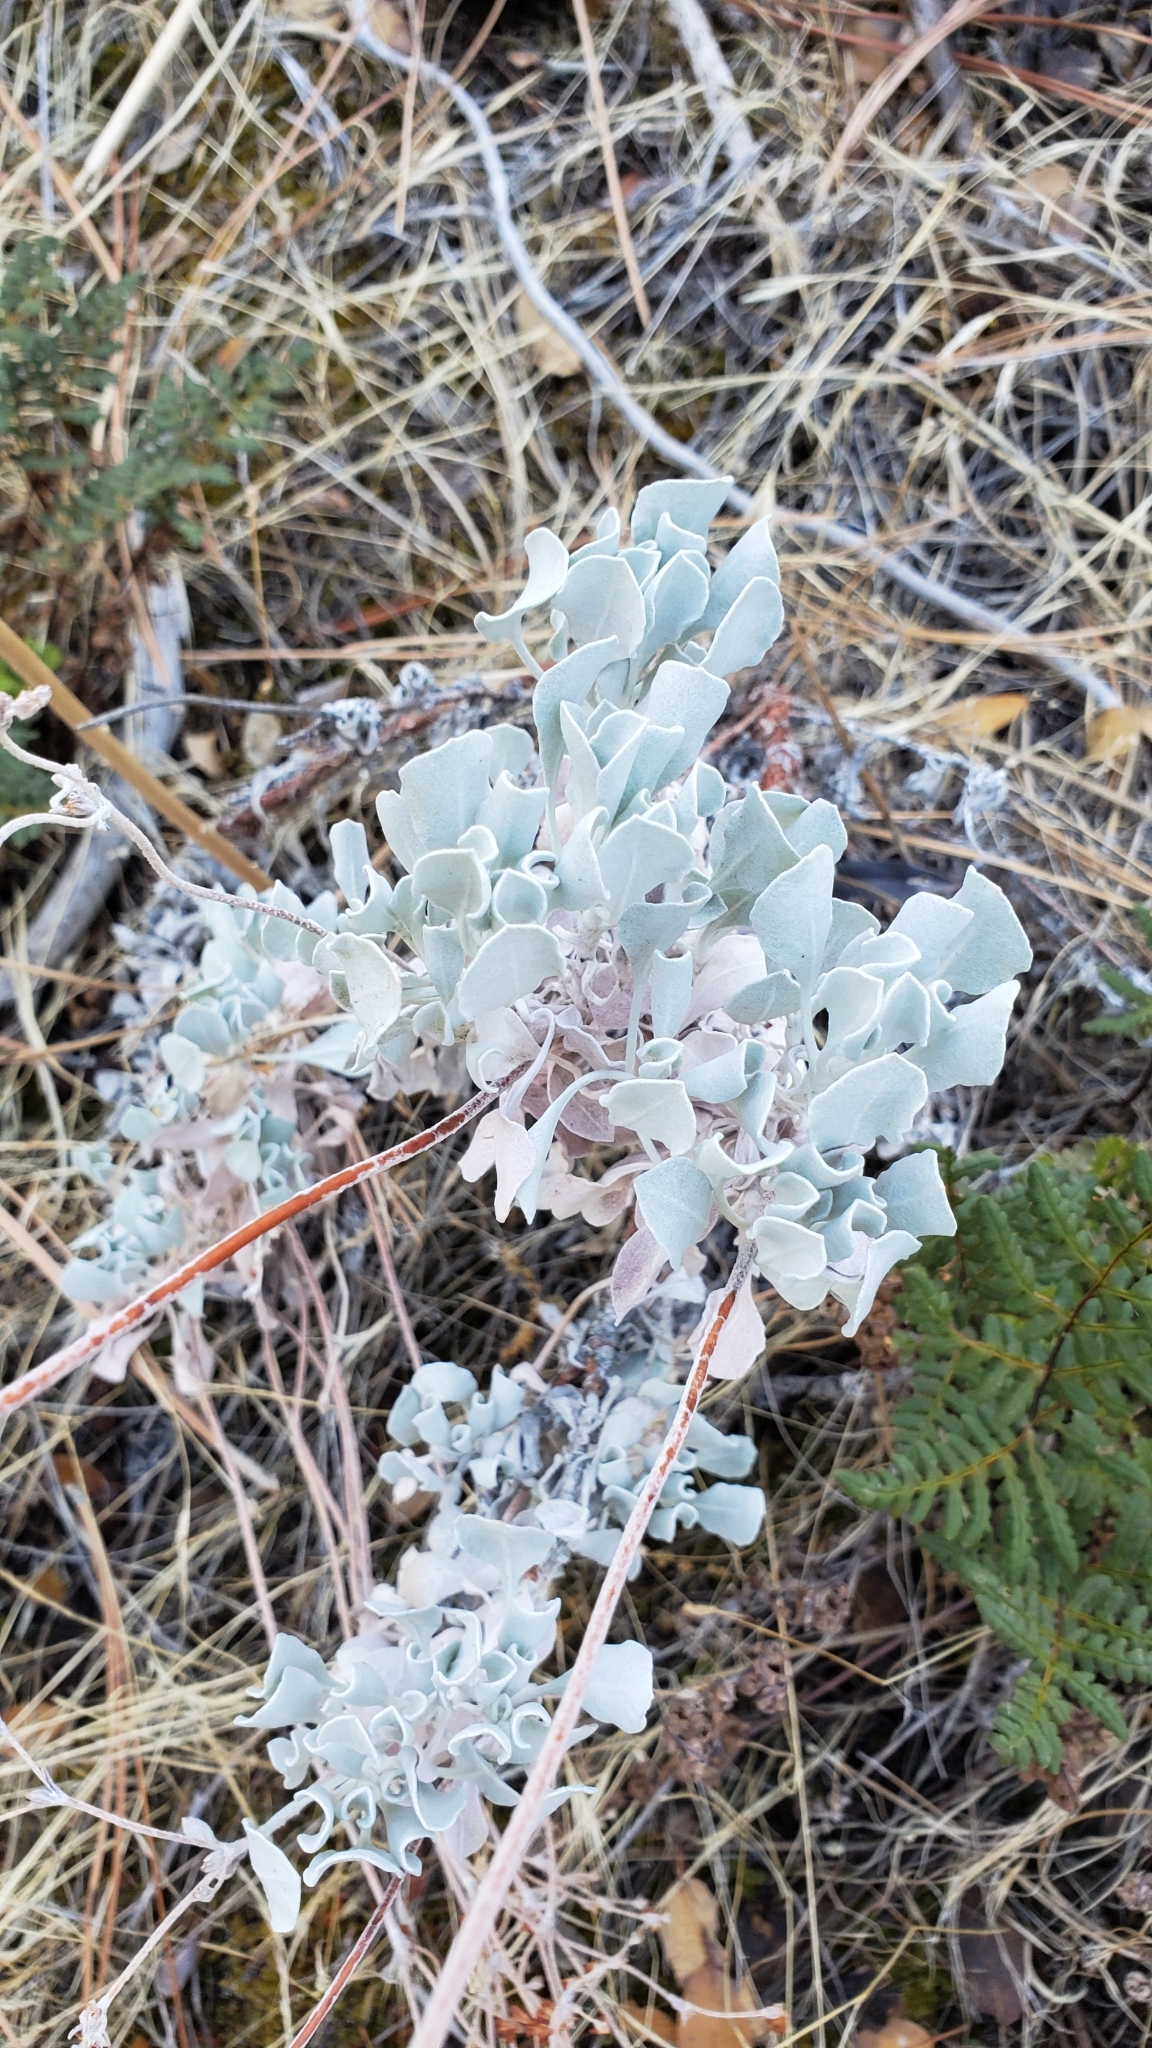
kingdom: Plantae
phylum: Tracheophyta
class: Magnoliopsida
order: Caryophyllales
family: Polygonaceae
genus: Eriogonum
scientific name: Eriogonum saxatile
